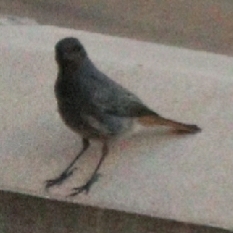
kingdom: Animalia
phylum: Chordata
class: Aves
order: Passeriformes
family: Muscicapidae
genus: Phoenicurus
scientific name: Phoenicurus ochruros
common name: Black redstart
